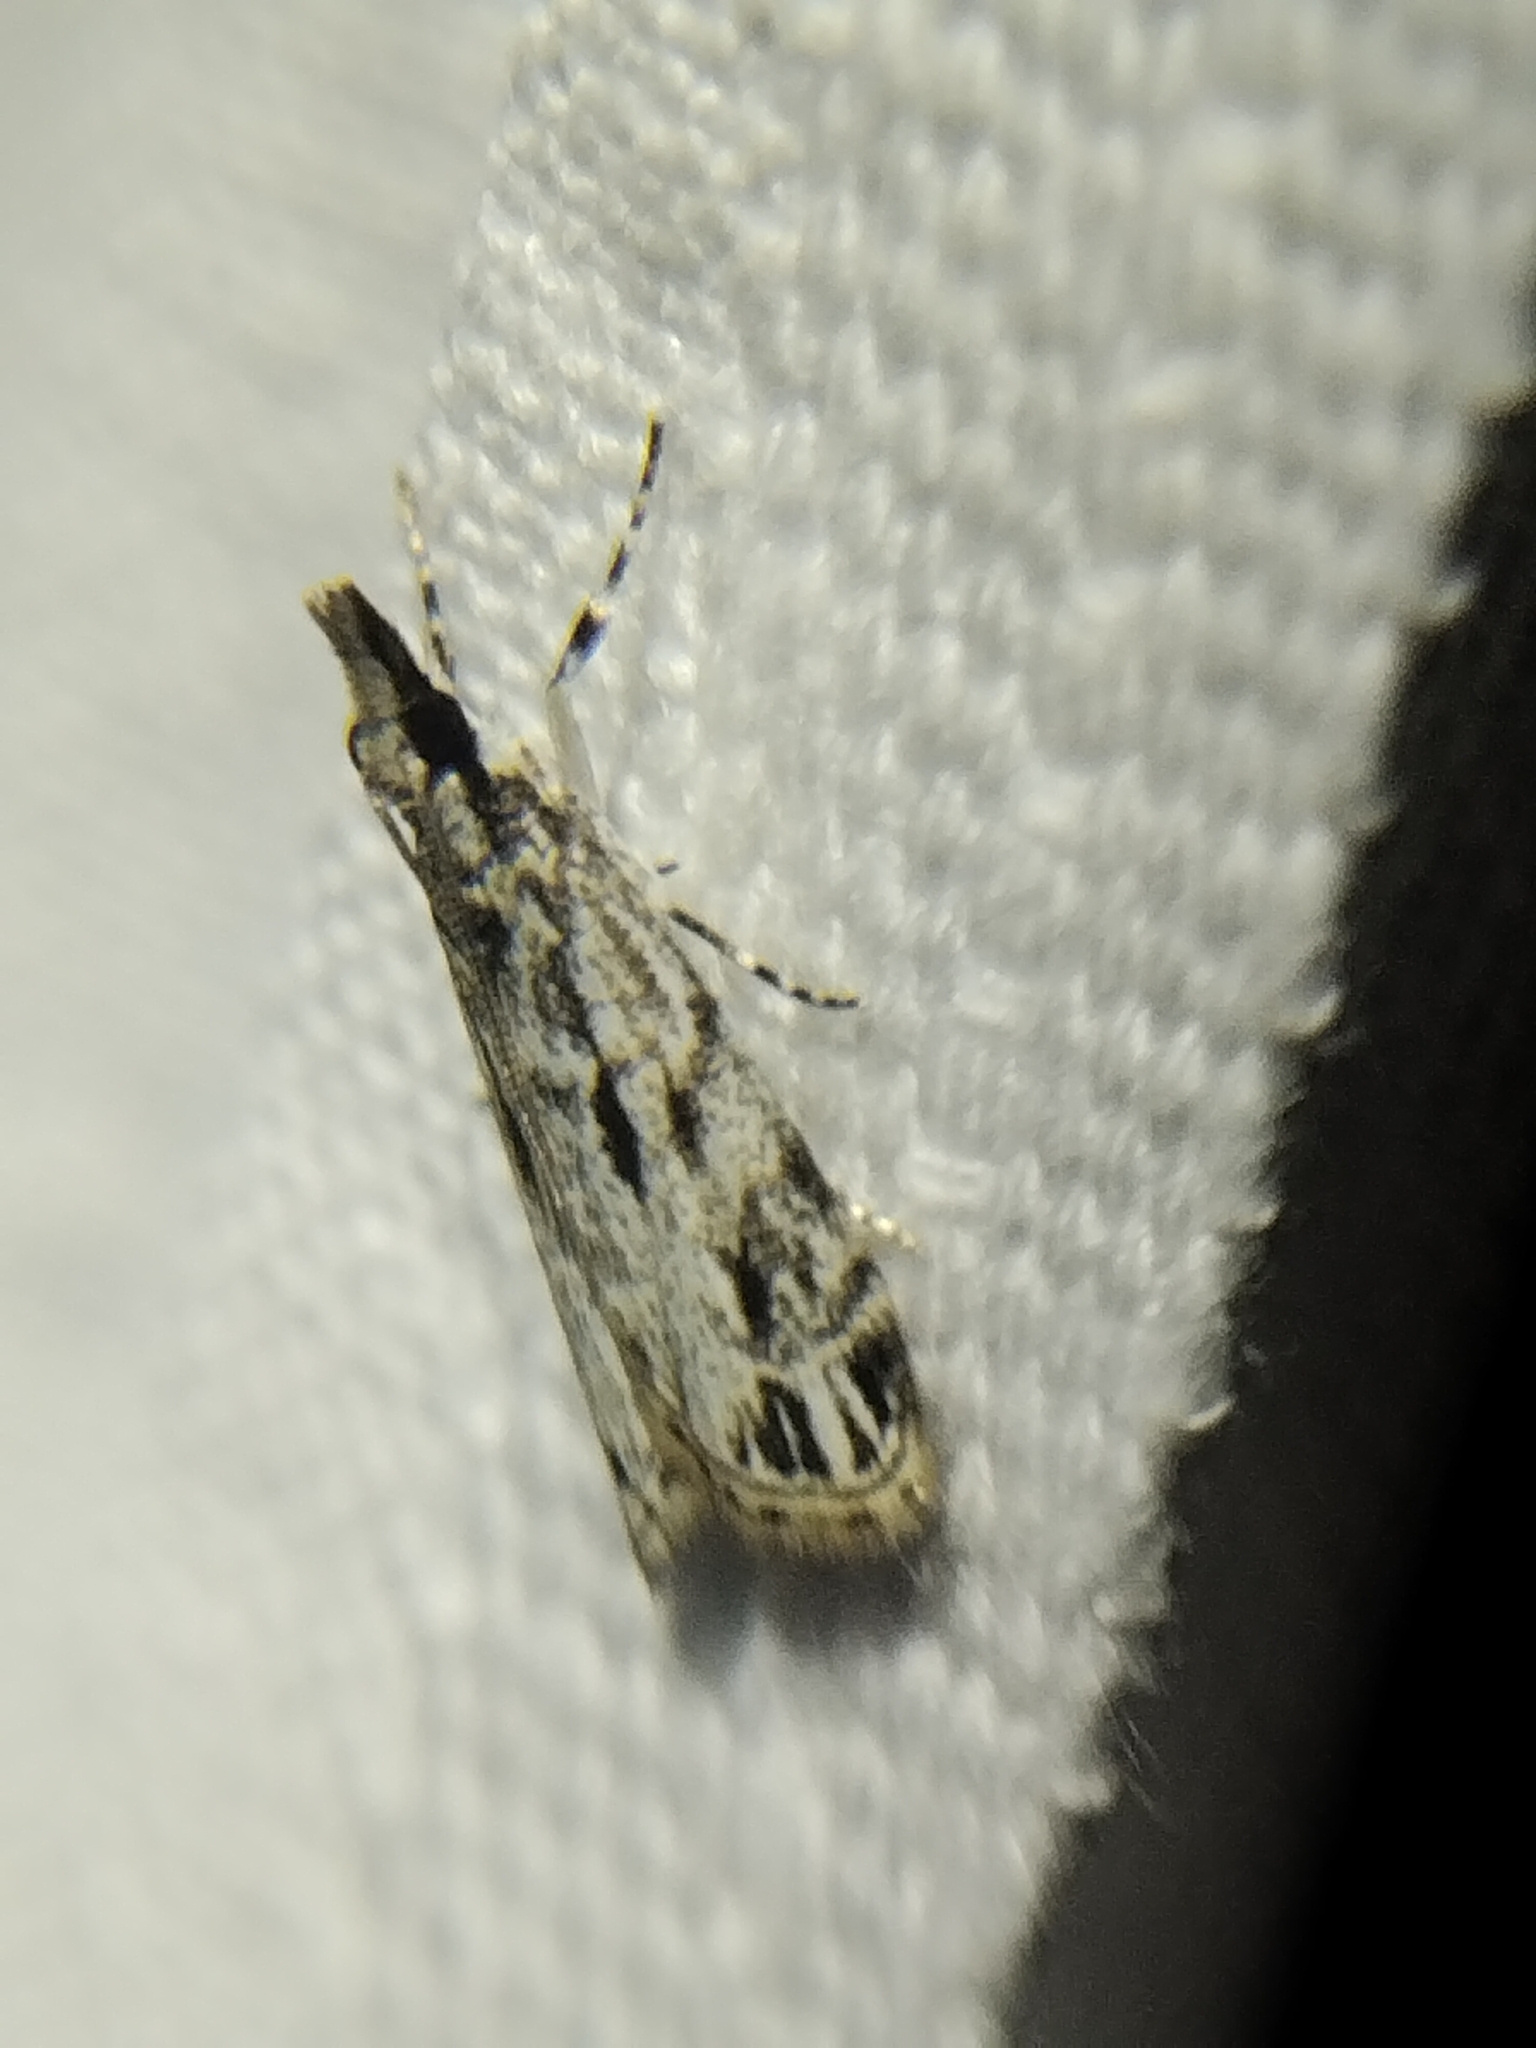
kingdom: Animalia
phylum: Arthropoda
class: Insecta
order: Lepidoptera
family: Crambidae
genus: Eudonia
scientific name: Eudonia strigalis
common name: Striped eudonia moth
